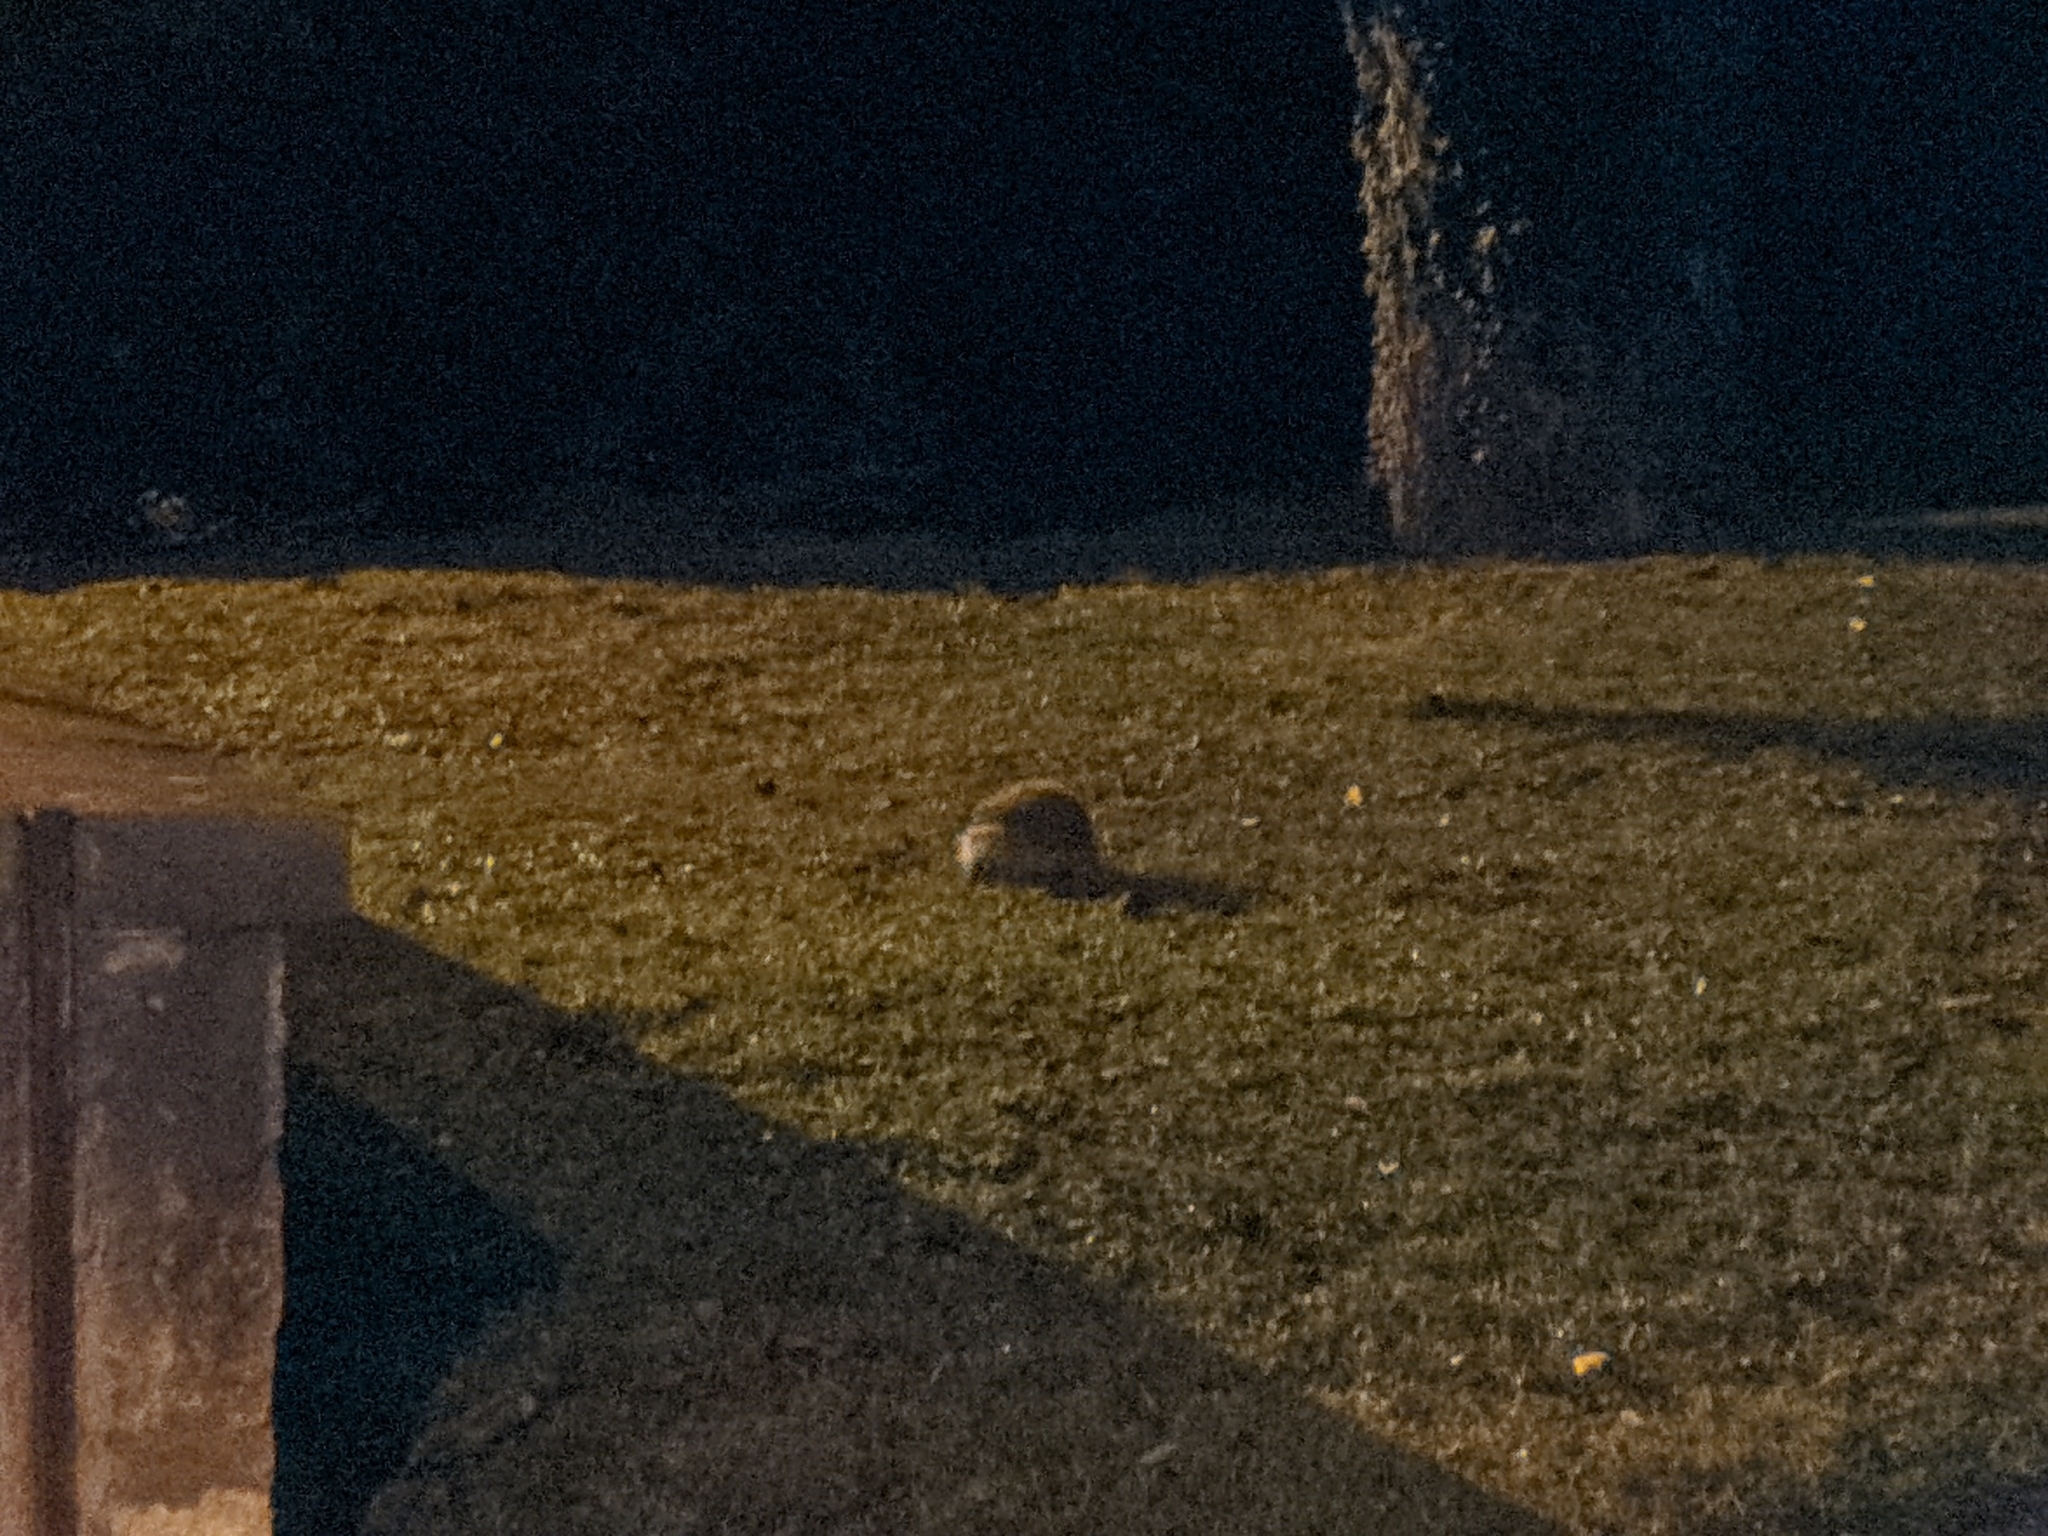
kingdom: Animalia
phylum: Chordata
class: Mammalia
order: Erinaceomorpha
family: Erinaceidae
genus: Erinaceus
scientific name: Erinaceus europaeus
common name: West european hedgehog
